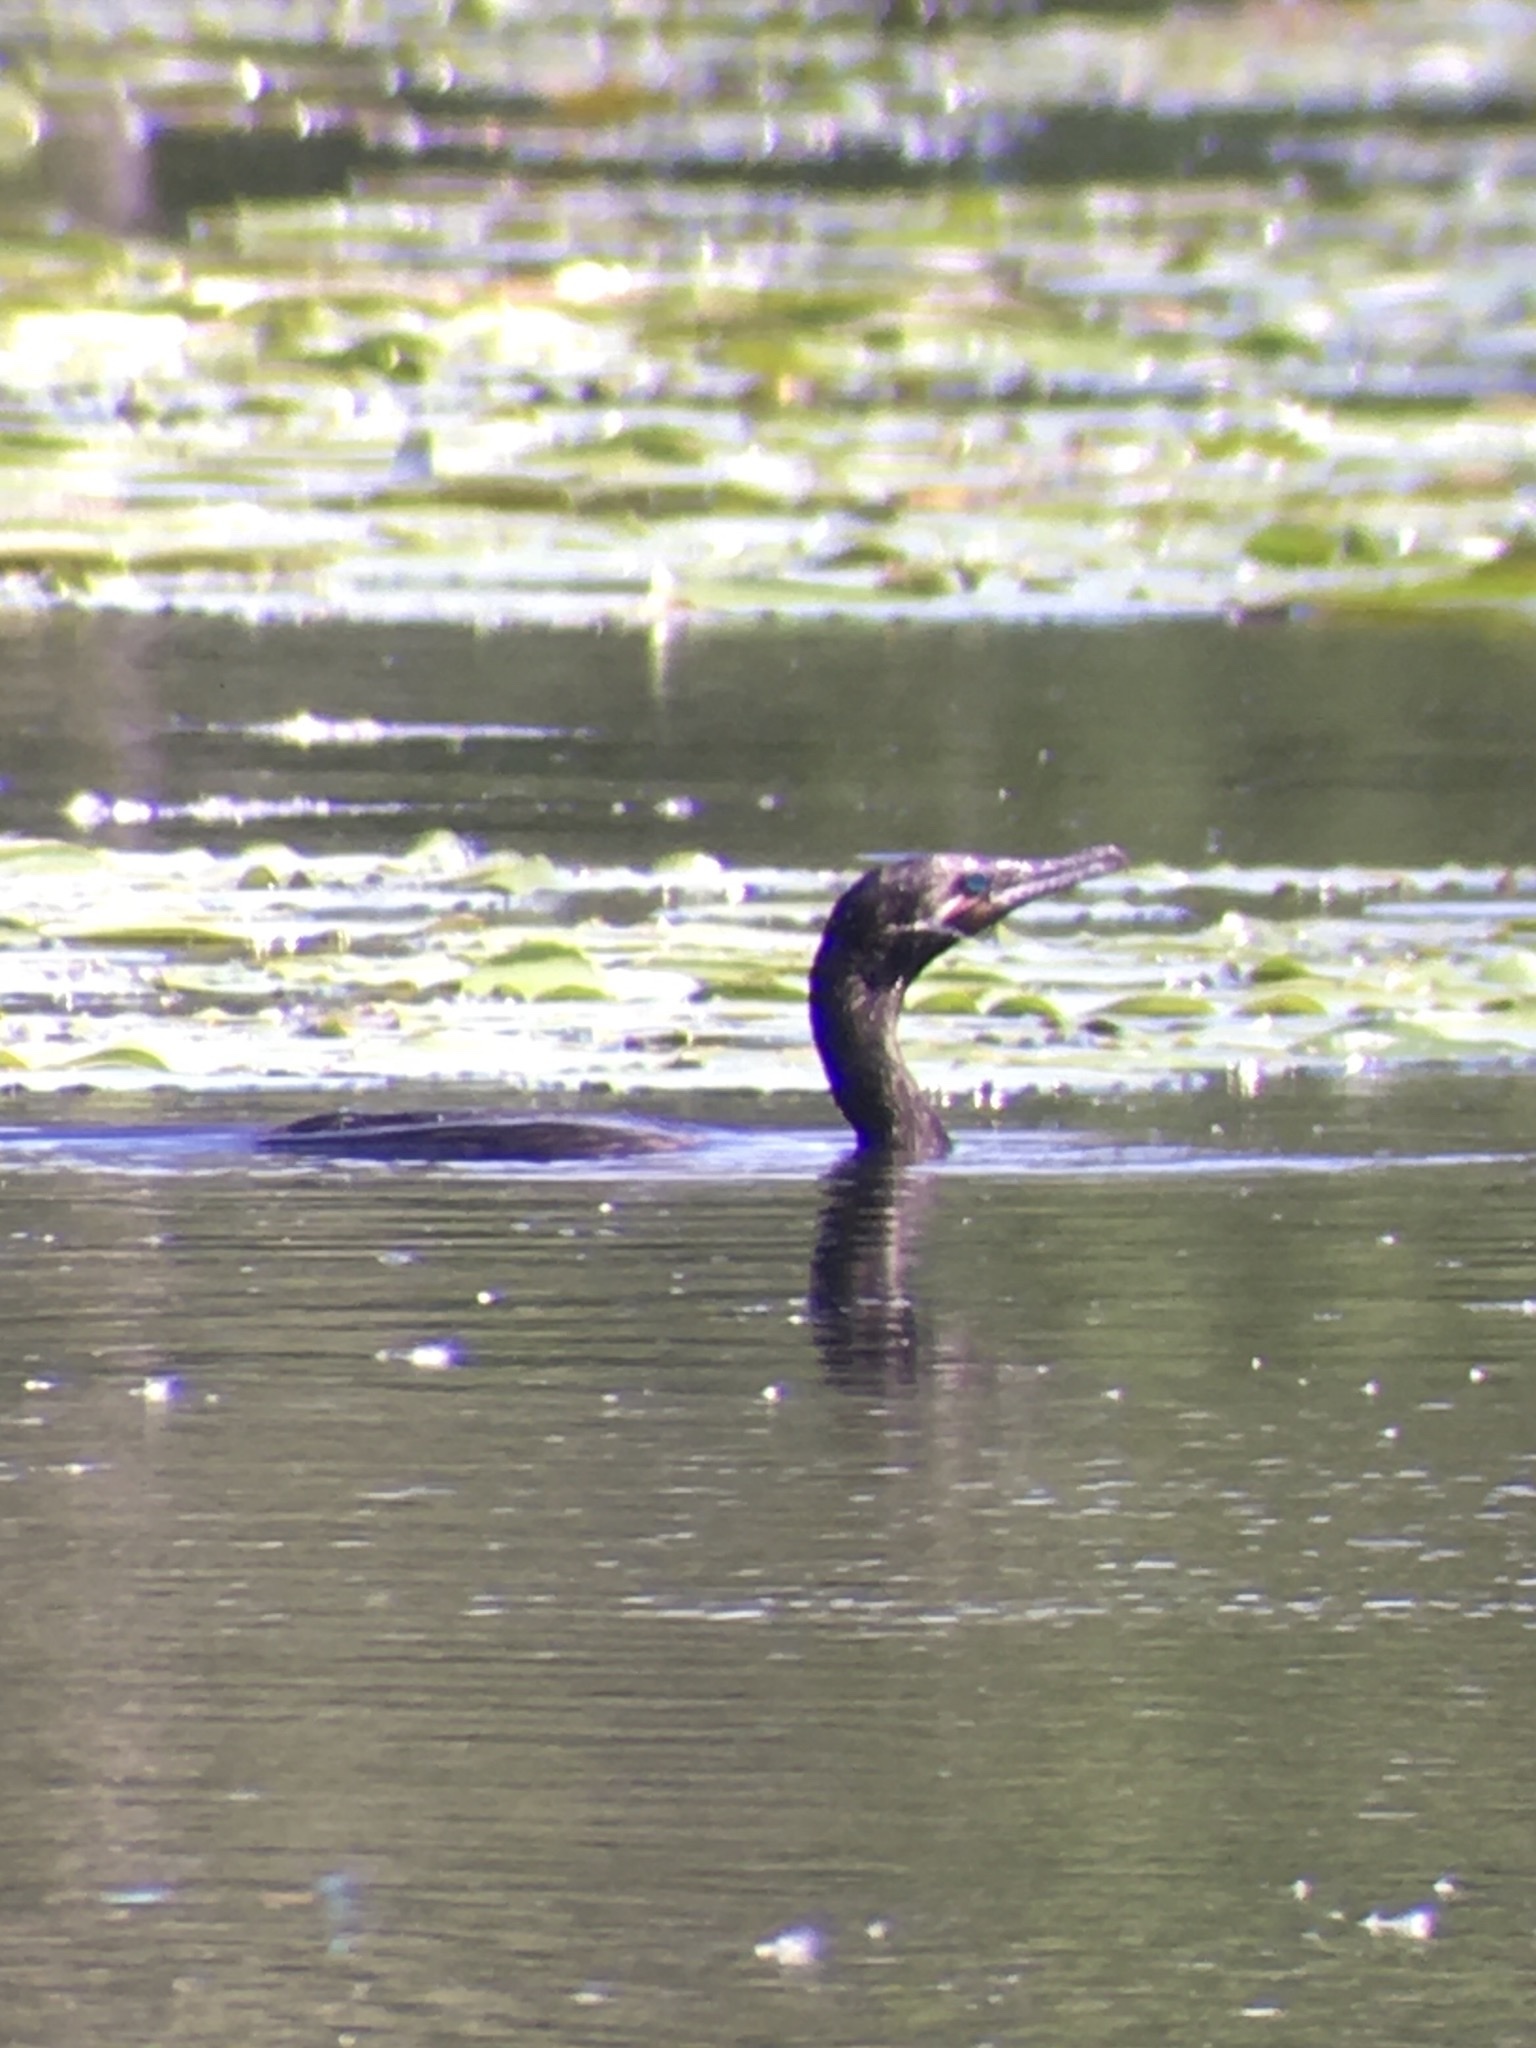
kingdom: Animalia
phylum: Chordata
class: Aves
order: Suliformes
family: Phalacrocoracidae
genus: Phalacrocorax
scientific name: Phalacrocorax brasilianus
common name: Neotropic cormorant
